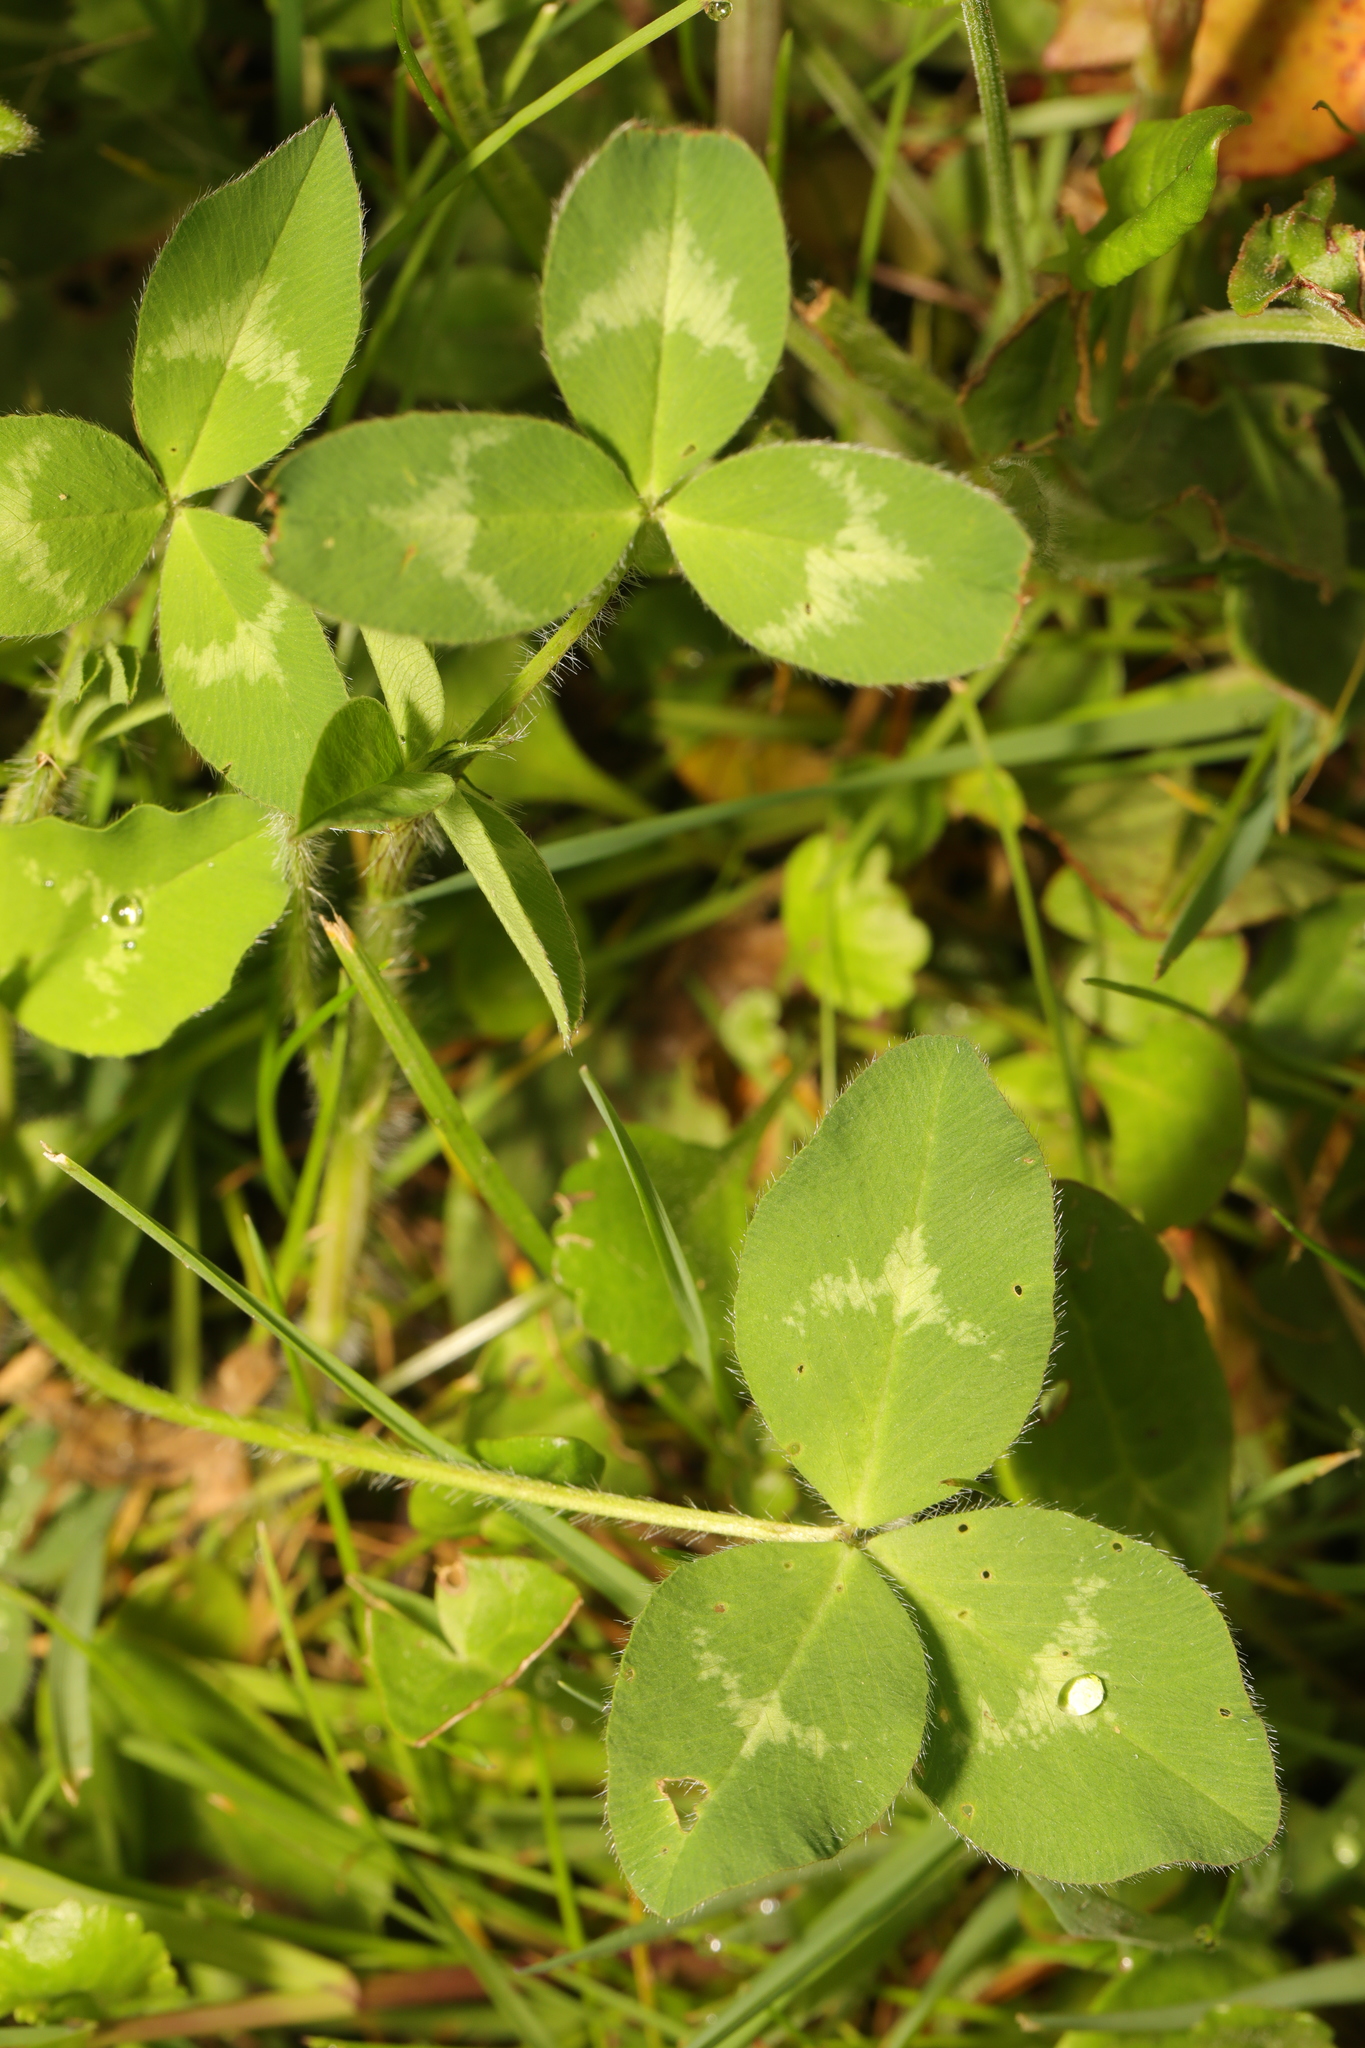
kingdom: Plantae
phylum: Tracheophyta
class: Magnoliopsida
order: Fabales
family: Fabaceae
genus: Trifolium
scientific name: Trifolium pratense
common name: Red clover
